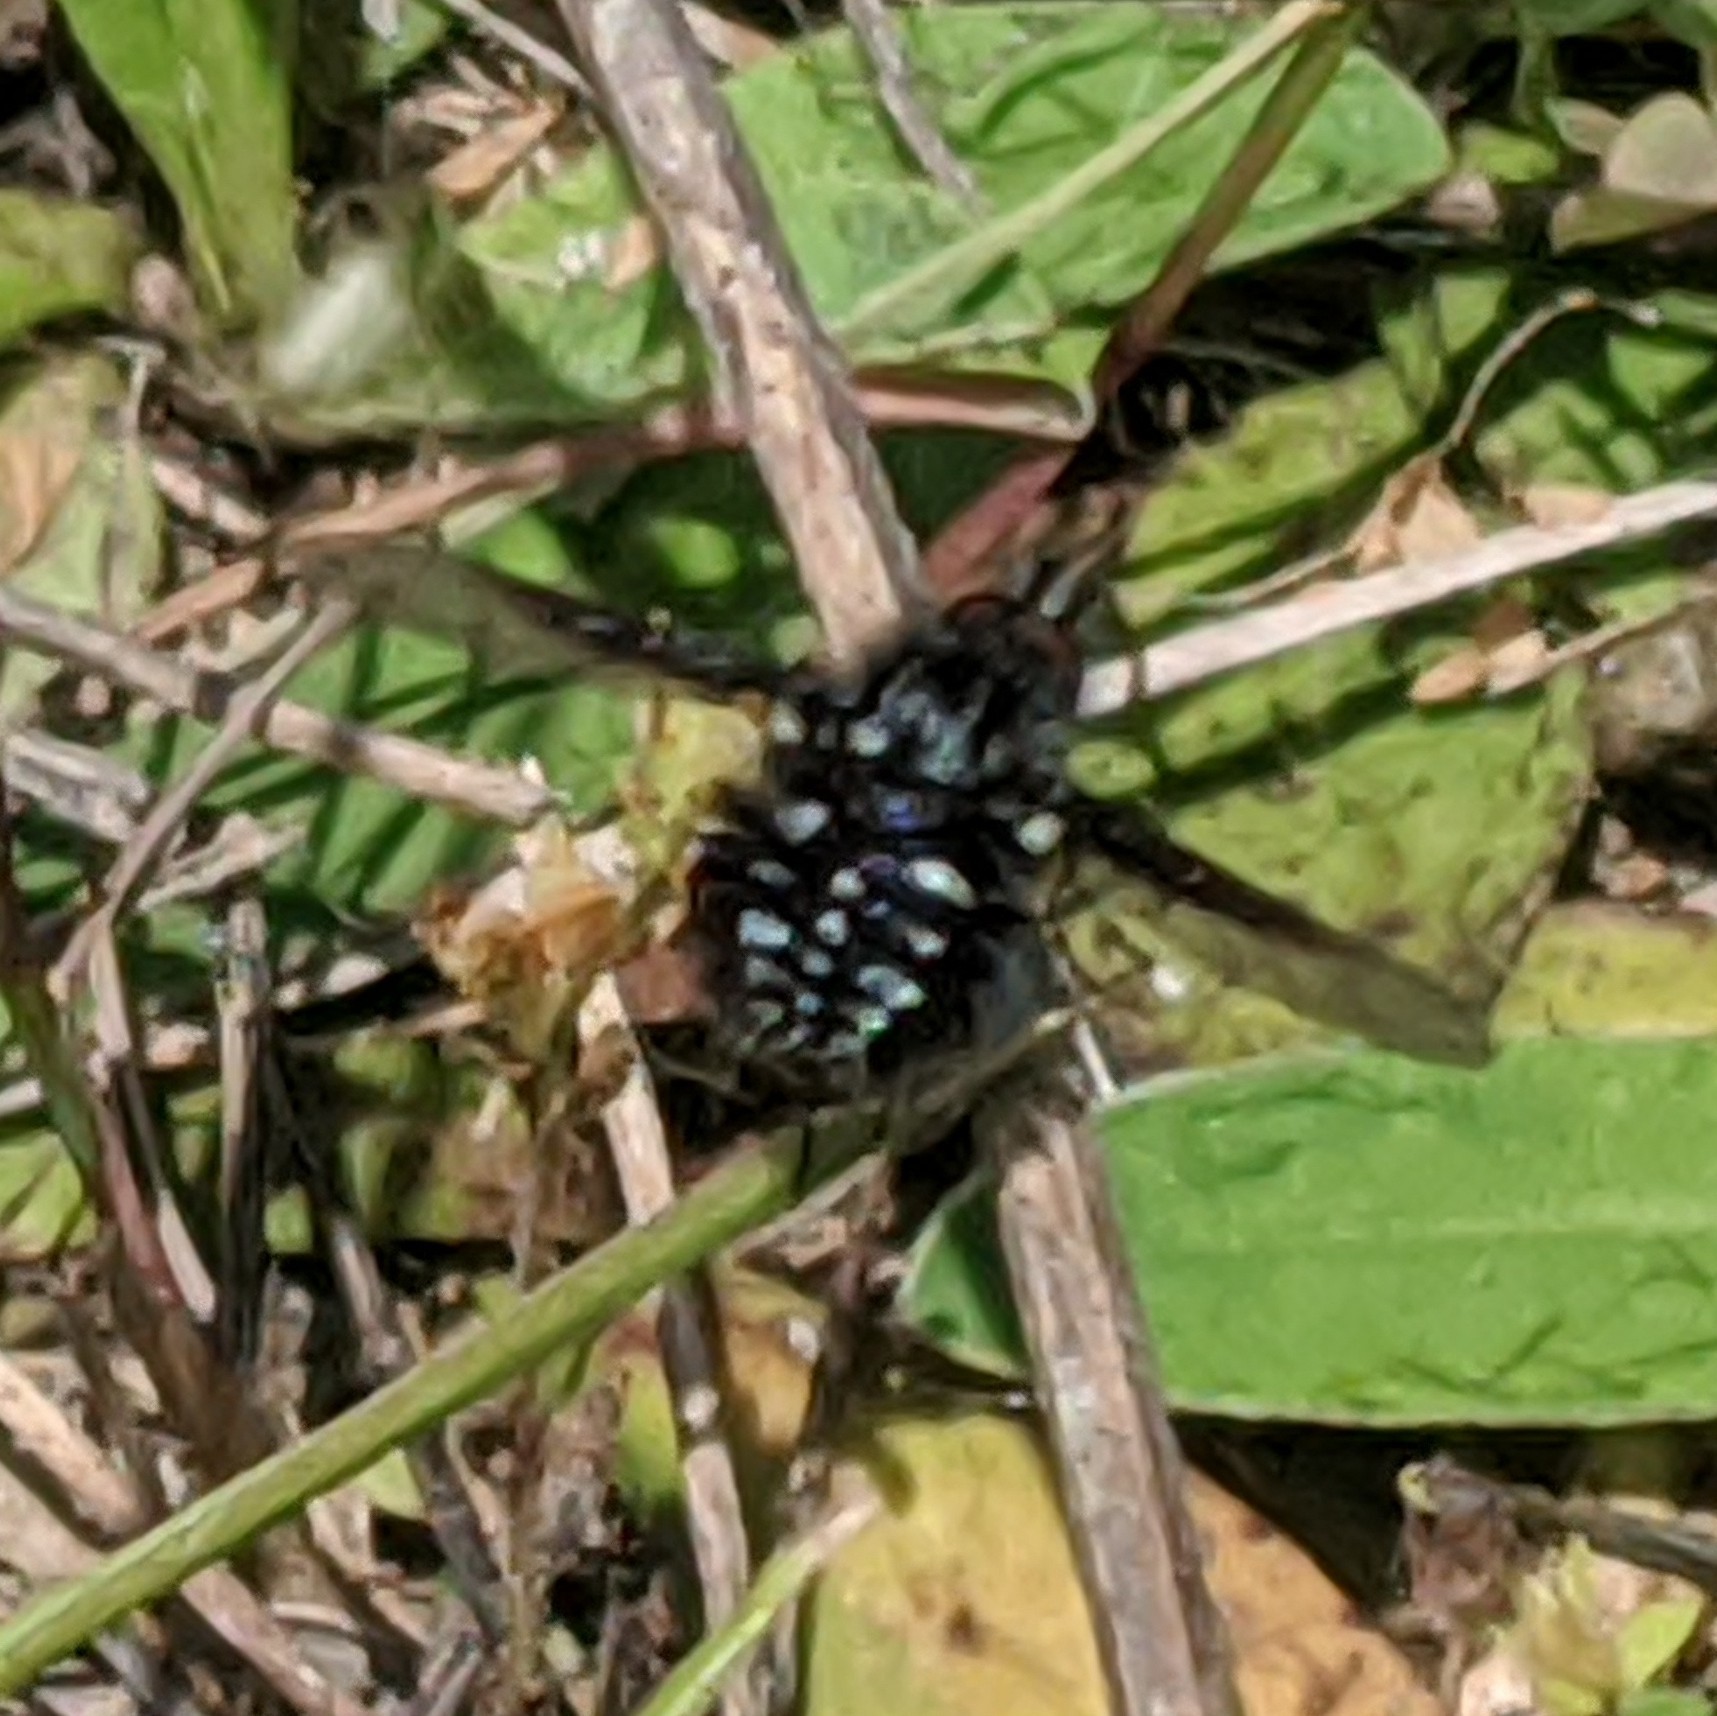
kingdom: Animalia
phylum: Arthropoda
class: Insecta
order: Diptera
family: Bombyliidae
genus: Bombylella
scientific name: Bombylella atra
